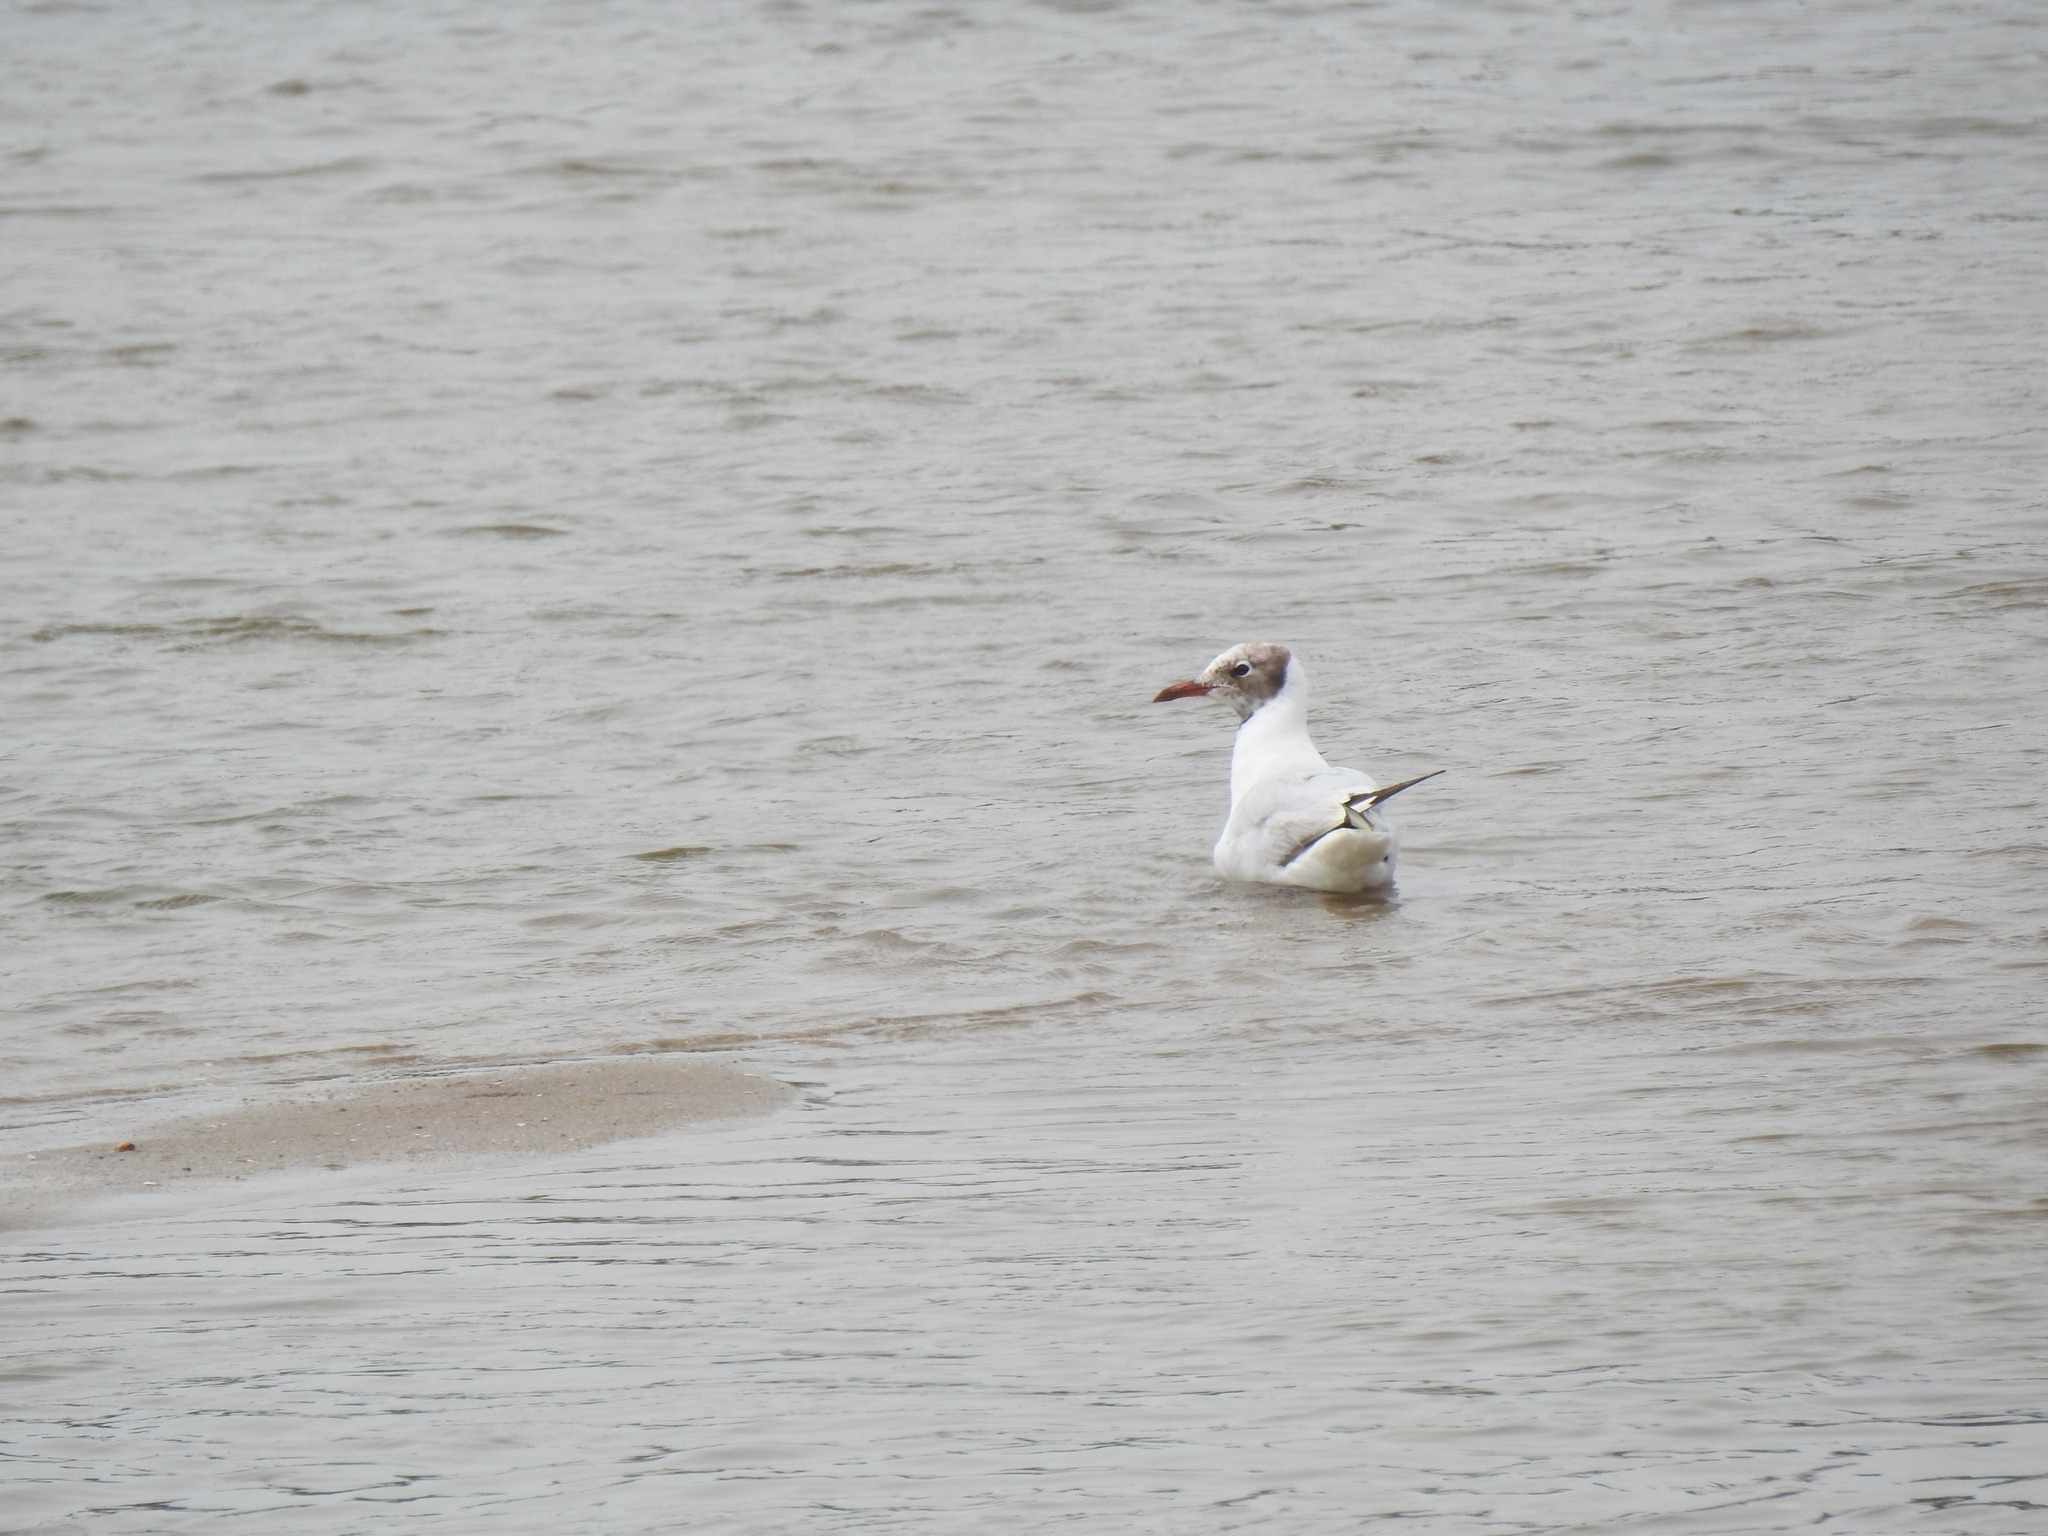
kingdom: Animalia
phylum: Chordata
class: Aves
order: Charadriiformes
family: Laridae
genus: Chroicocephalus
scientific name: Chroicocephalus ridibundus
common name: Black-headed gull
